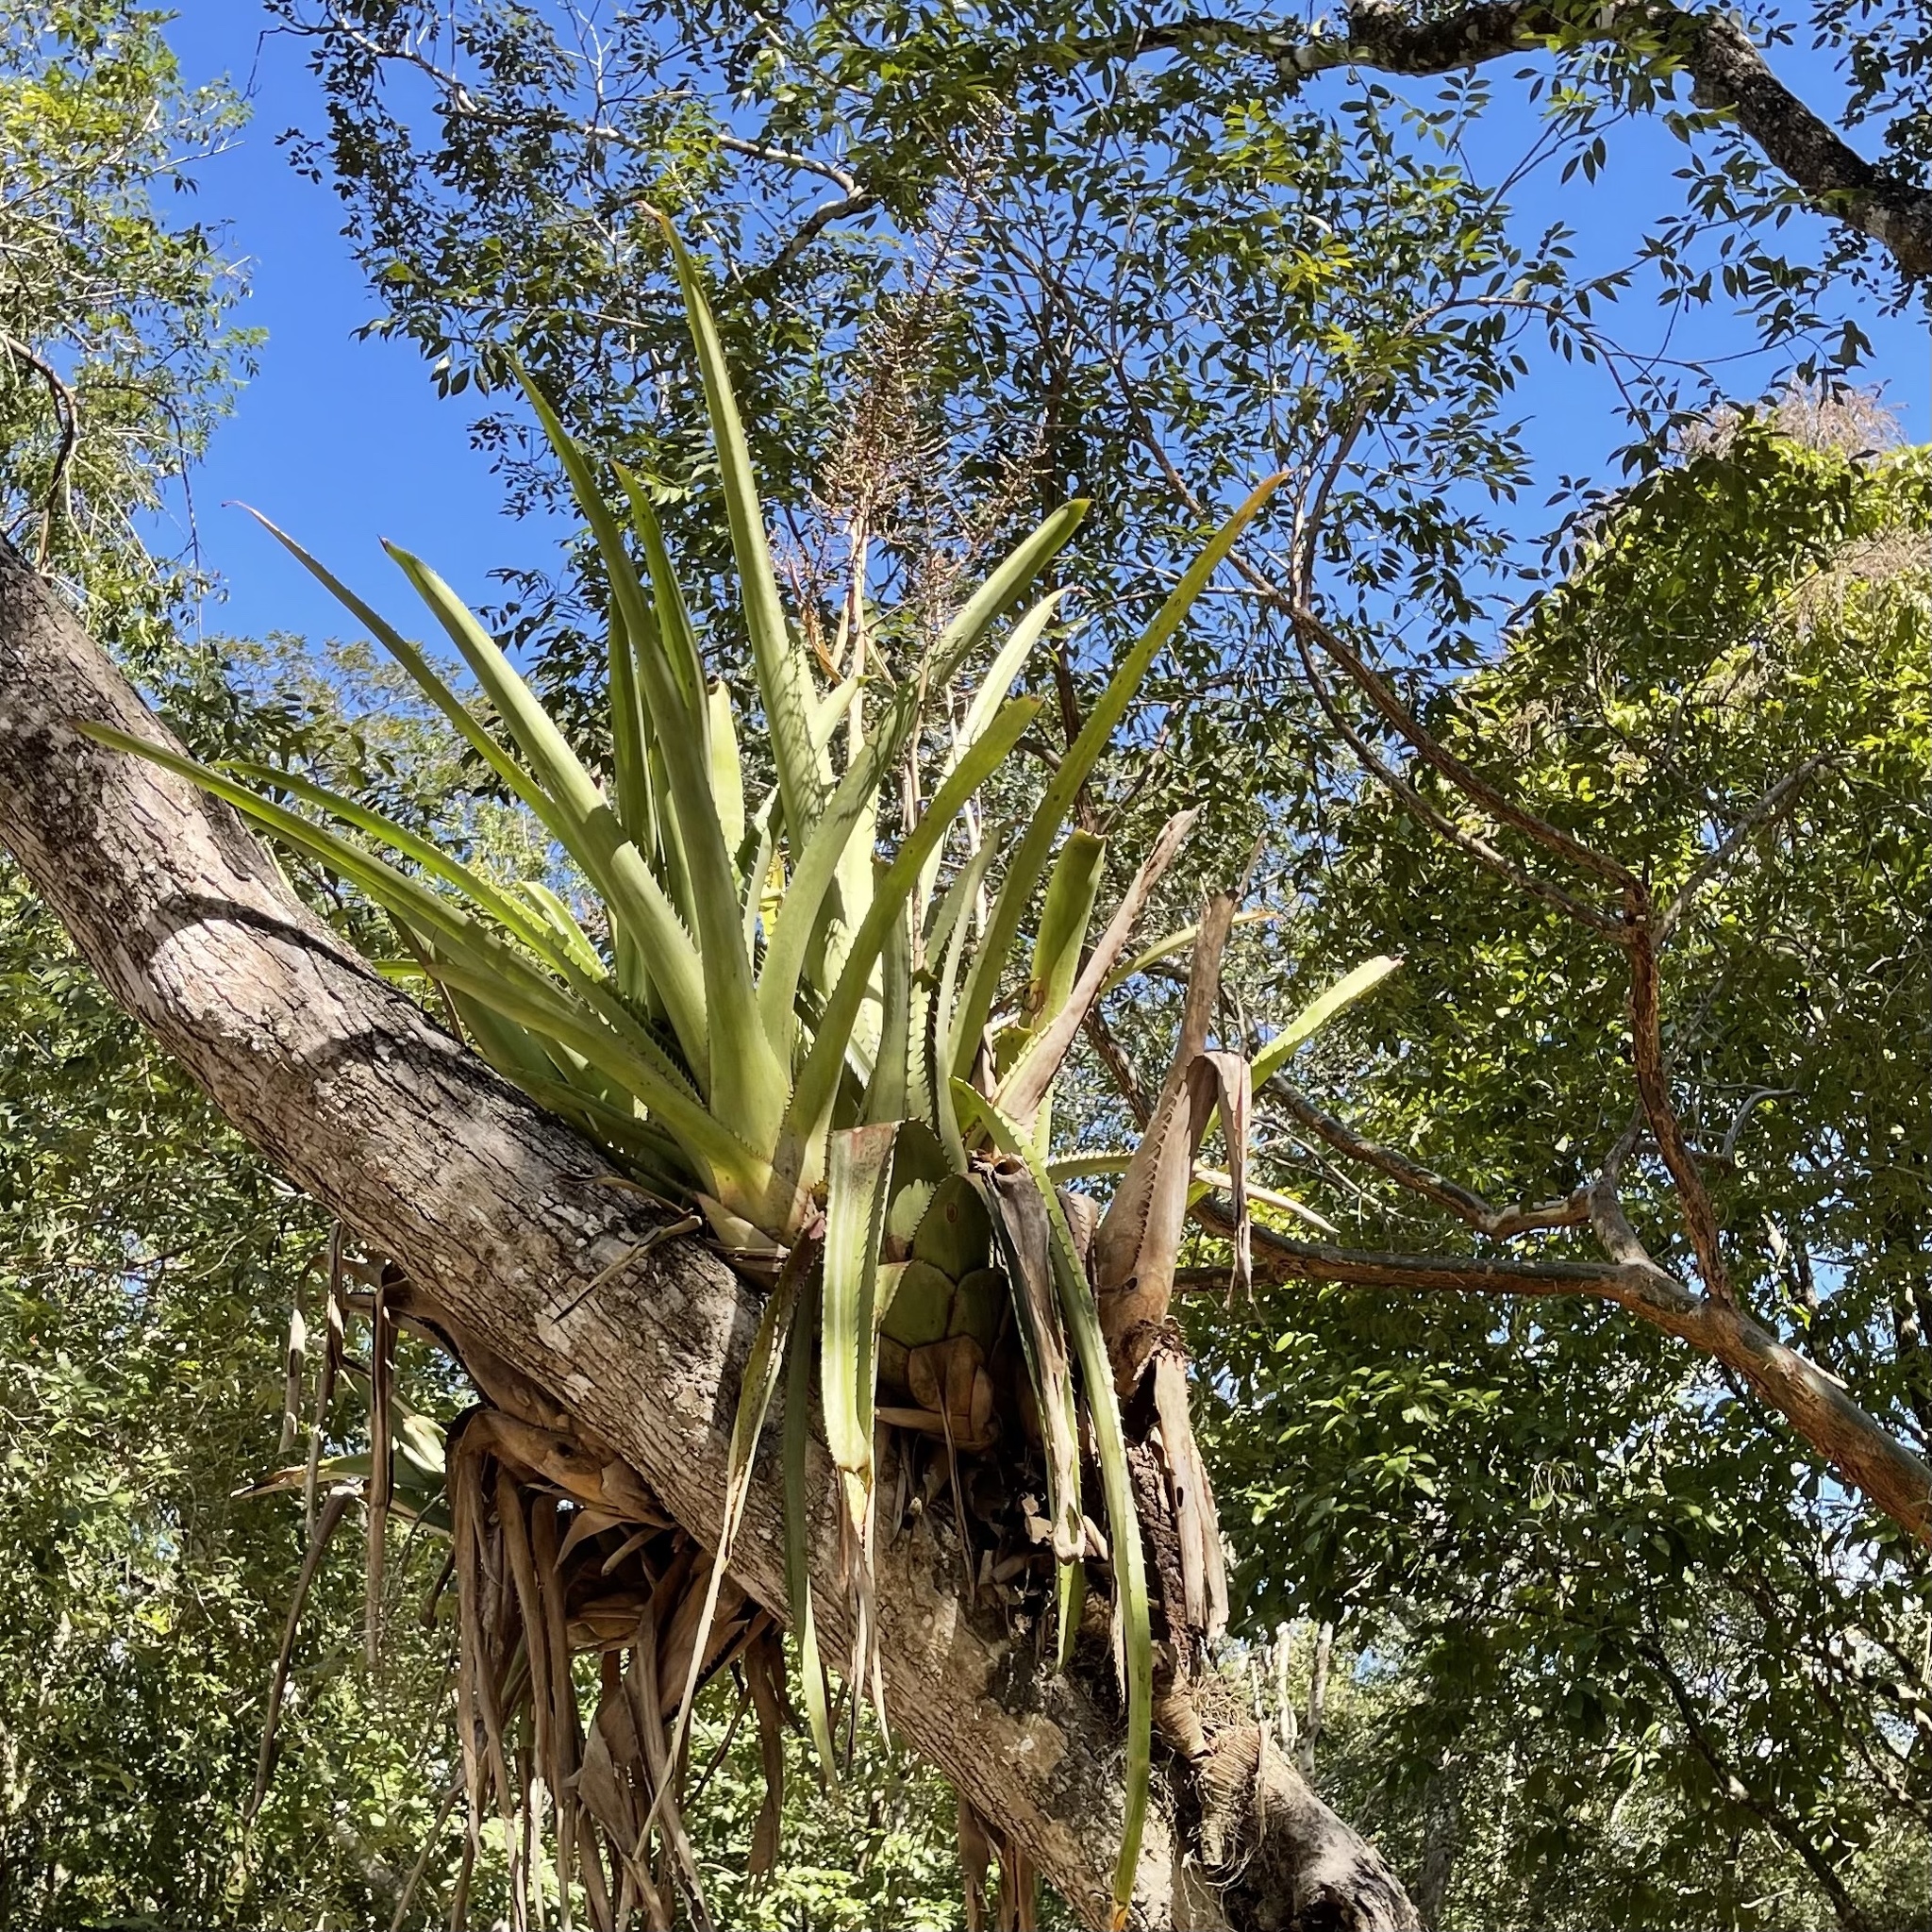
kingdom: Plantae
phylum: Tracheophyta
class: Liliopsida
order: Poales
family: Bromeliaceae
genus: Aechmea
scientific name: Aechmea bracteata
